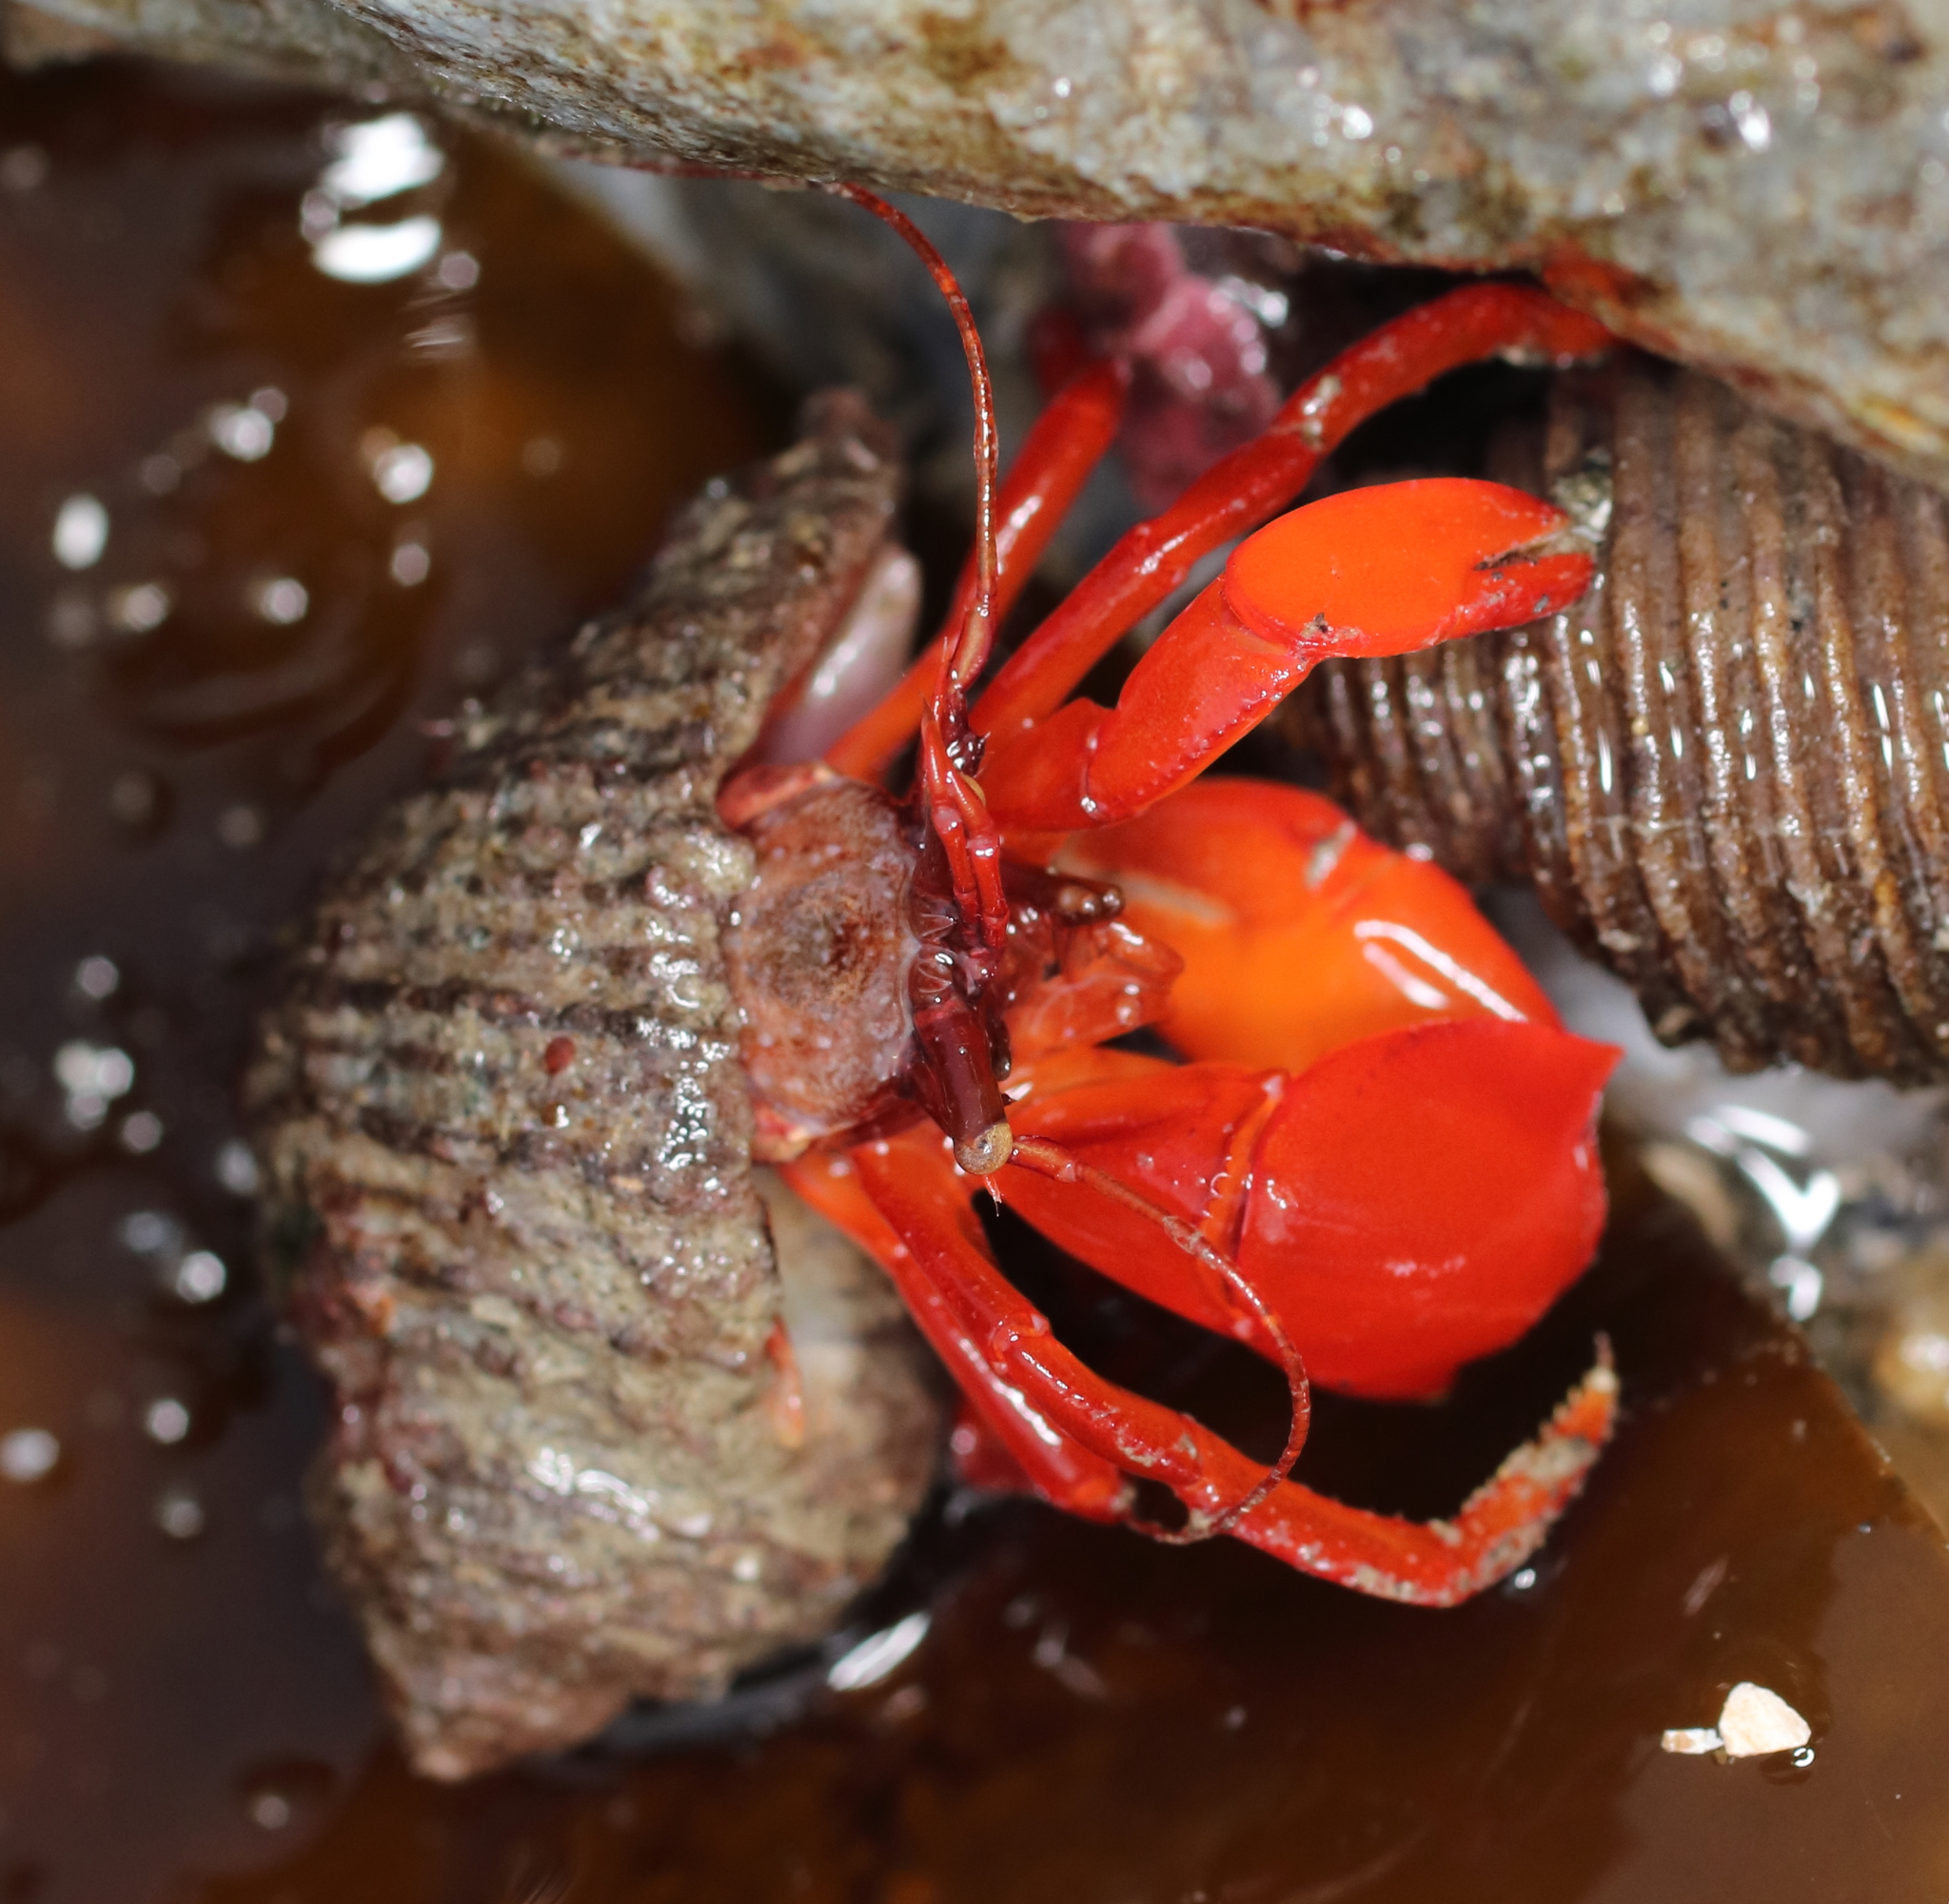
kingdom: Animalia
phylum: Arthropoda
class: Malacostraca
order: Decapoda
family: Paguridae
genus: Elassochirus
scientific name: Elassochirus gilli
